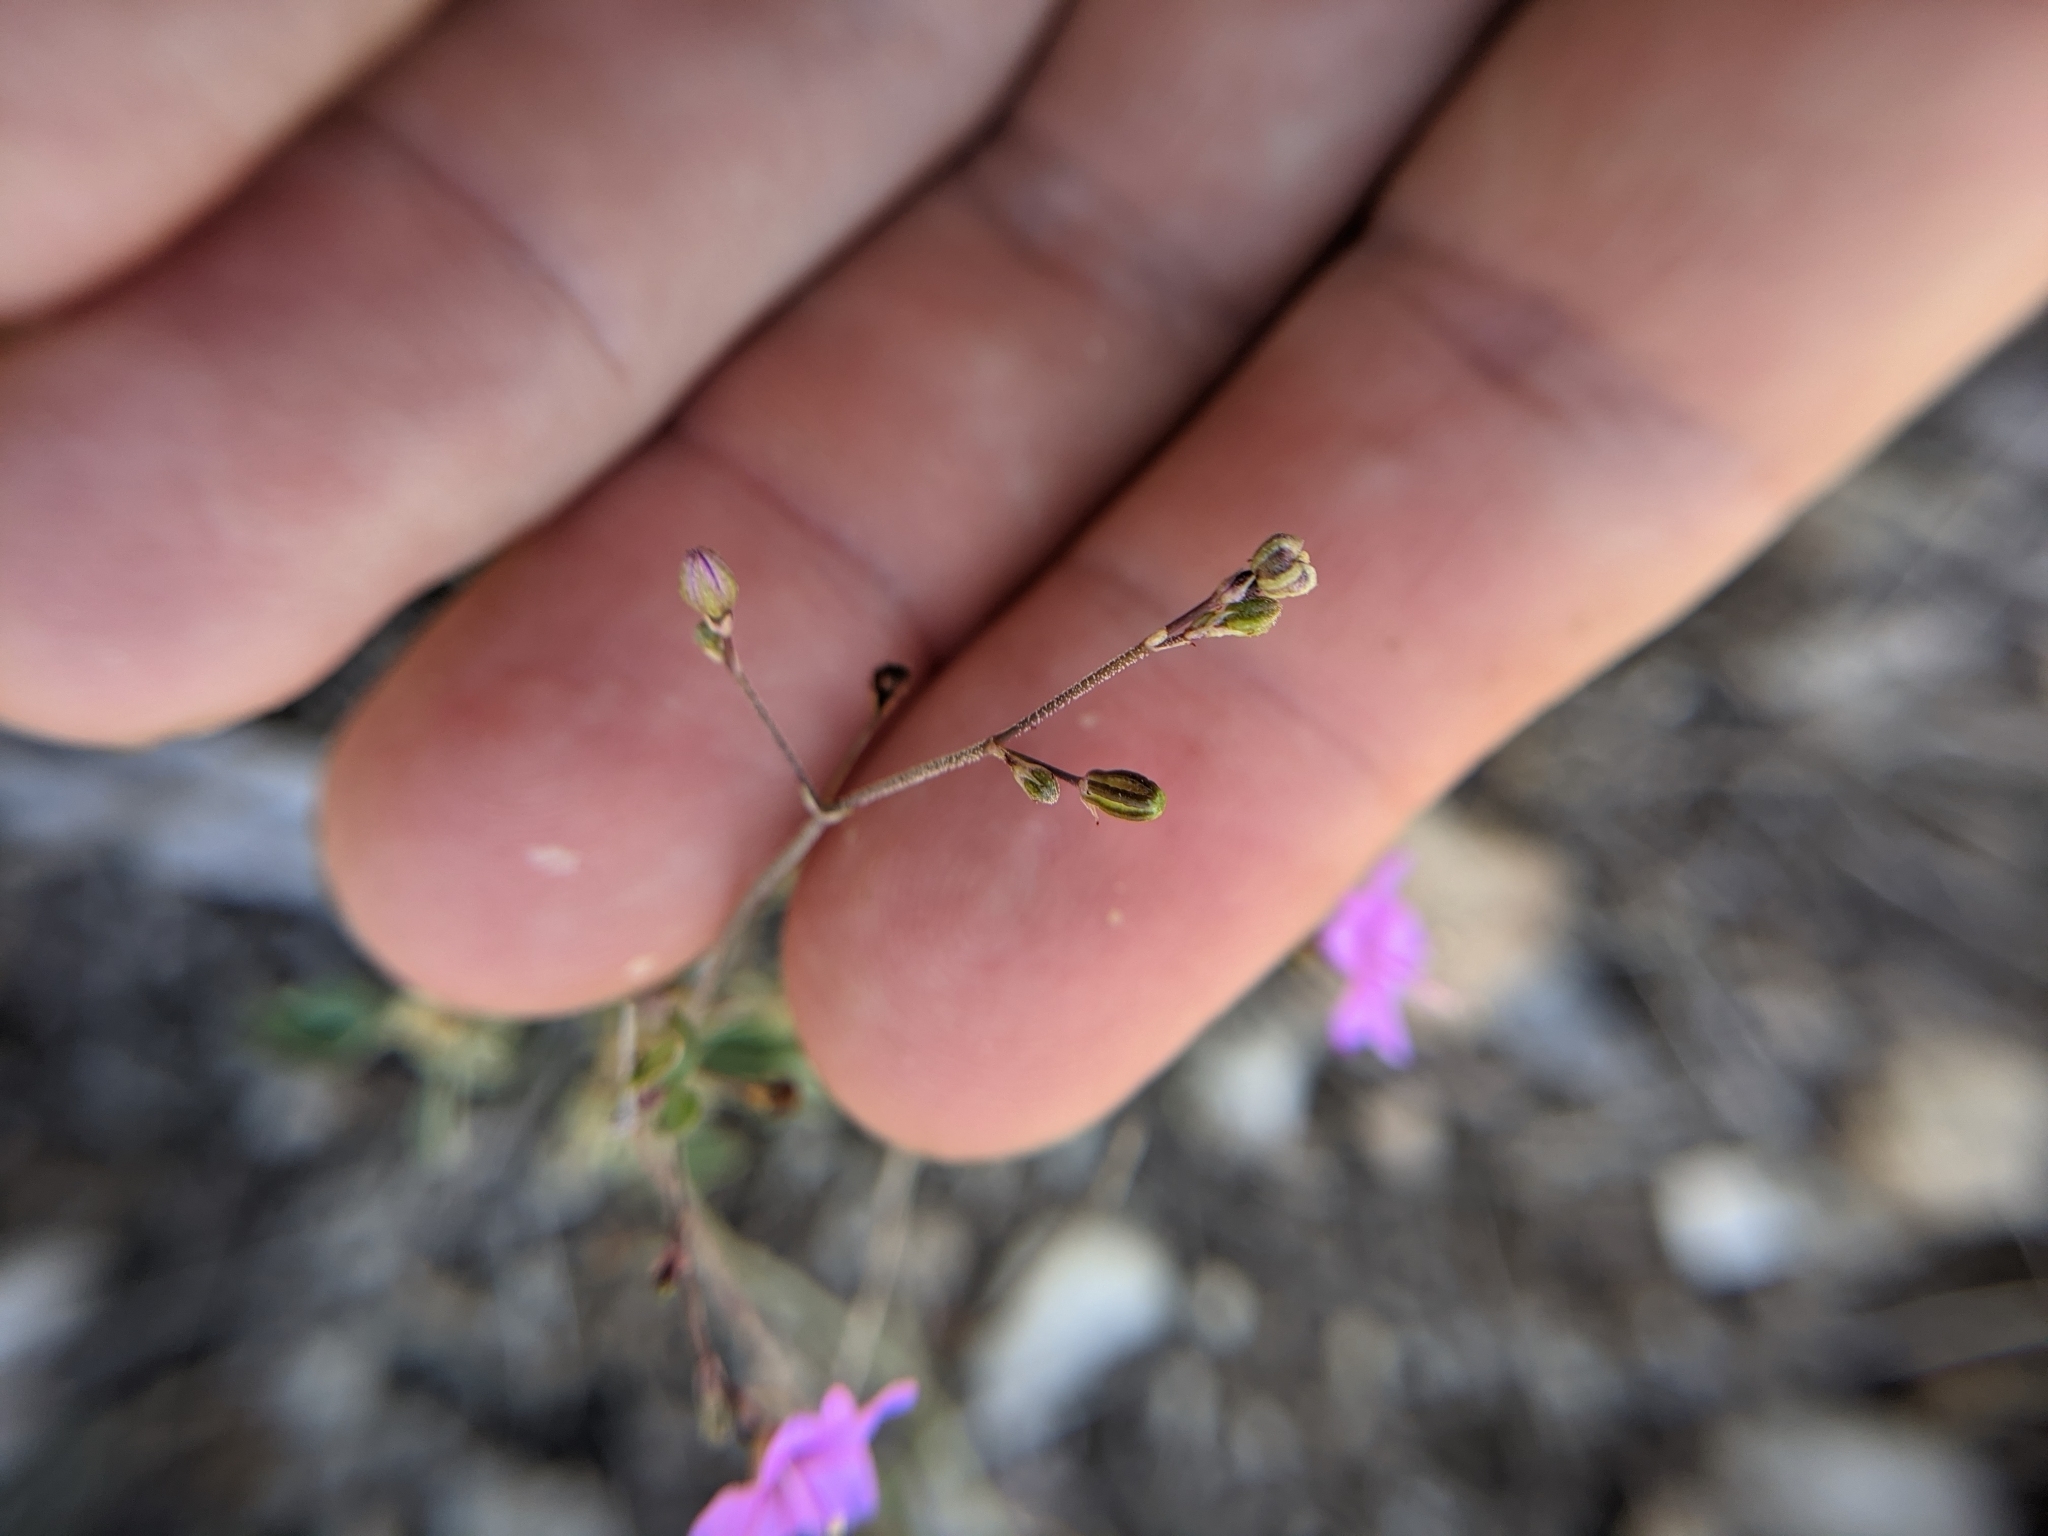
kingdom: Plantae
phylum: Tracheophyta
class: Magnoliopsida
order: Caryophyllales
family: Nyctaginaceae
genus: Boerhavia
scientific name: Boerhavia linearifolia
